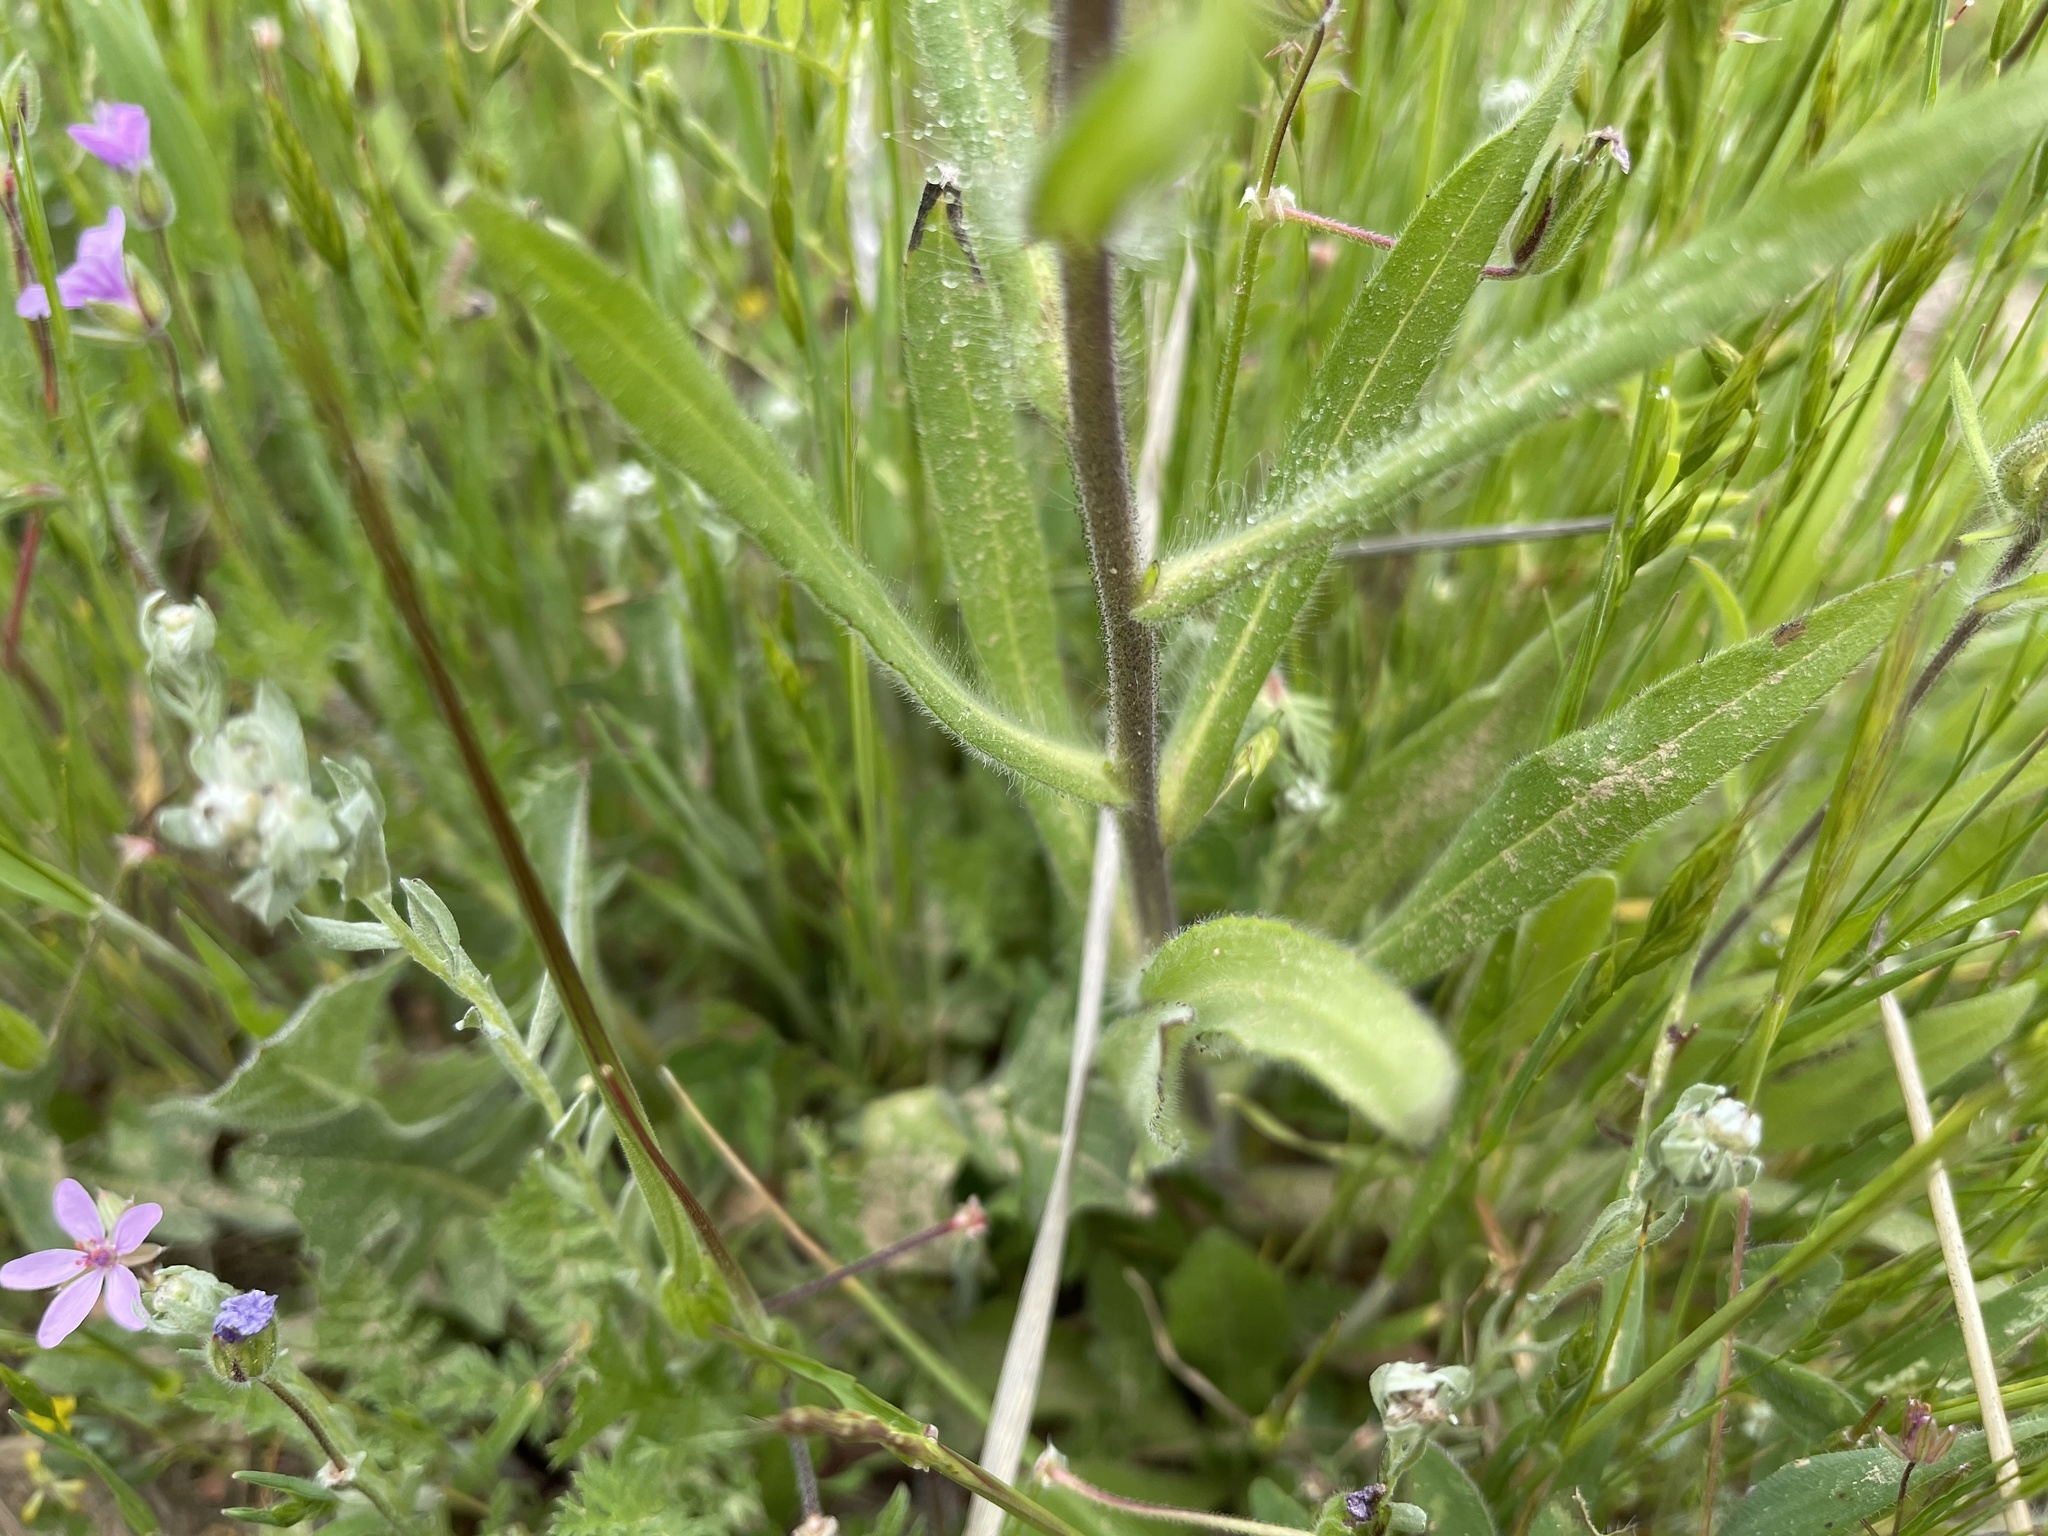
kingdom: Plantae
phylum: Tracheophyta
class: Magnoliopsida
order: Asterales
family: Asteraceae
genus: Madia
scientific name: Madia elegans
